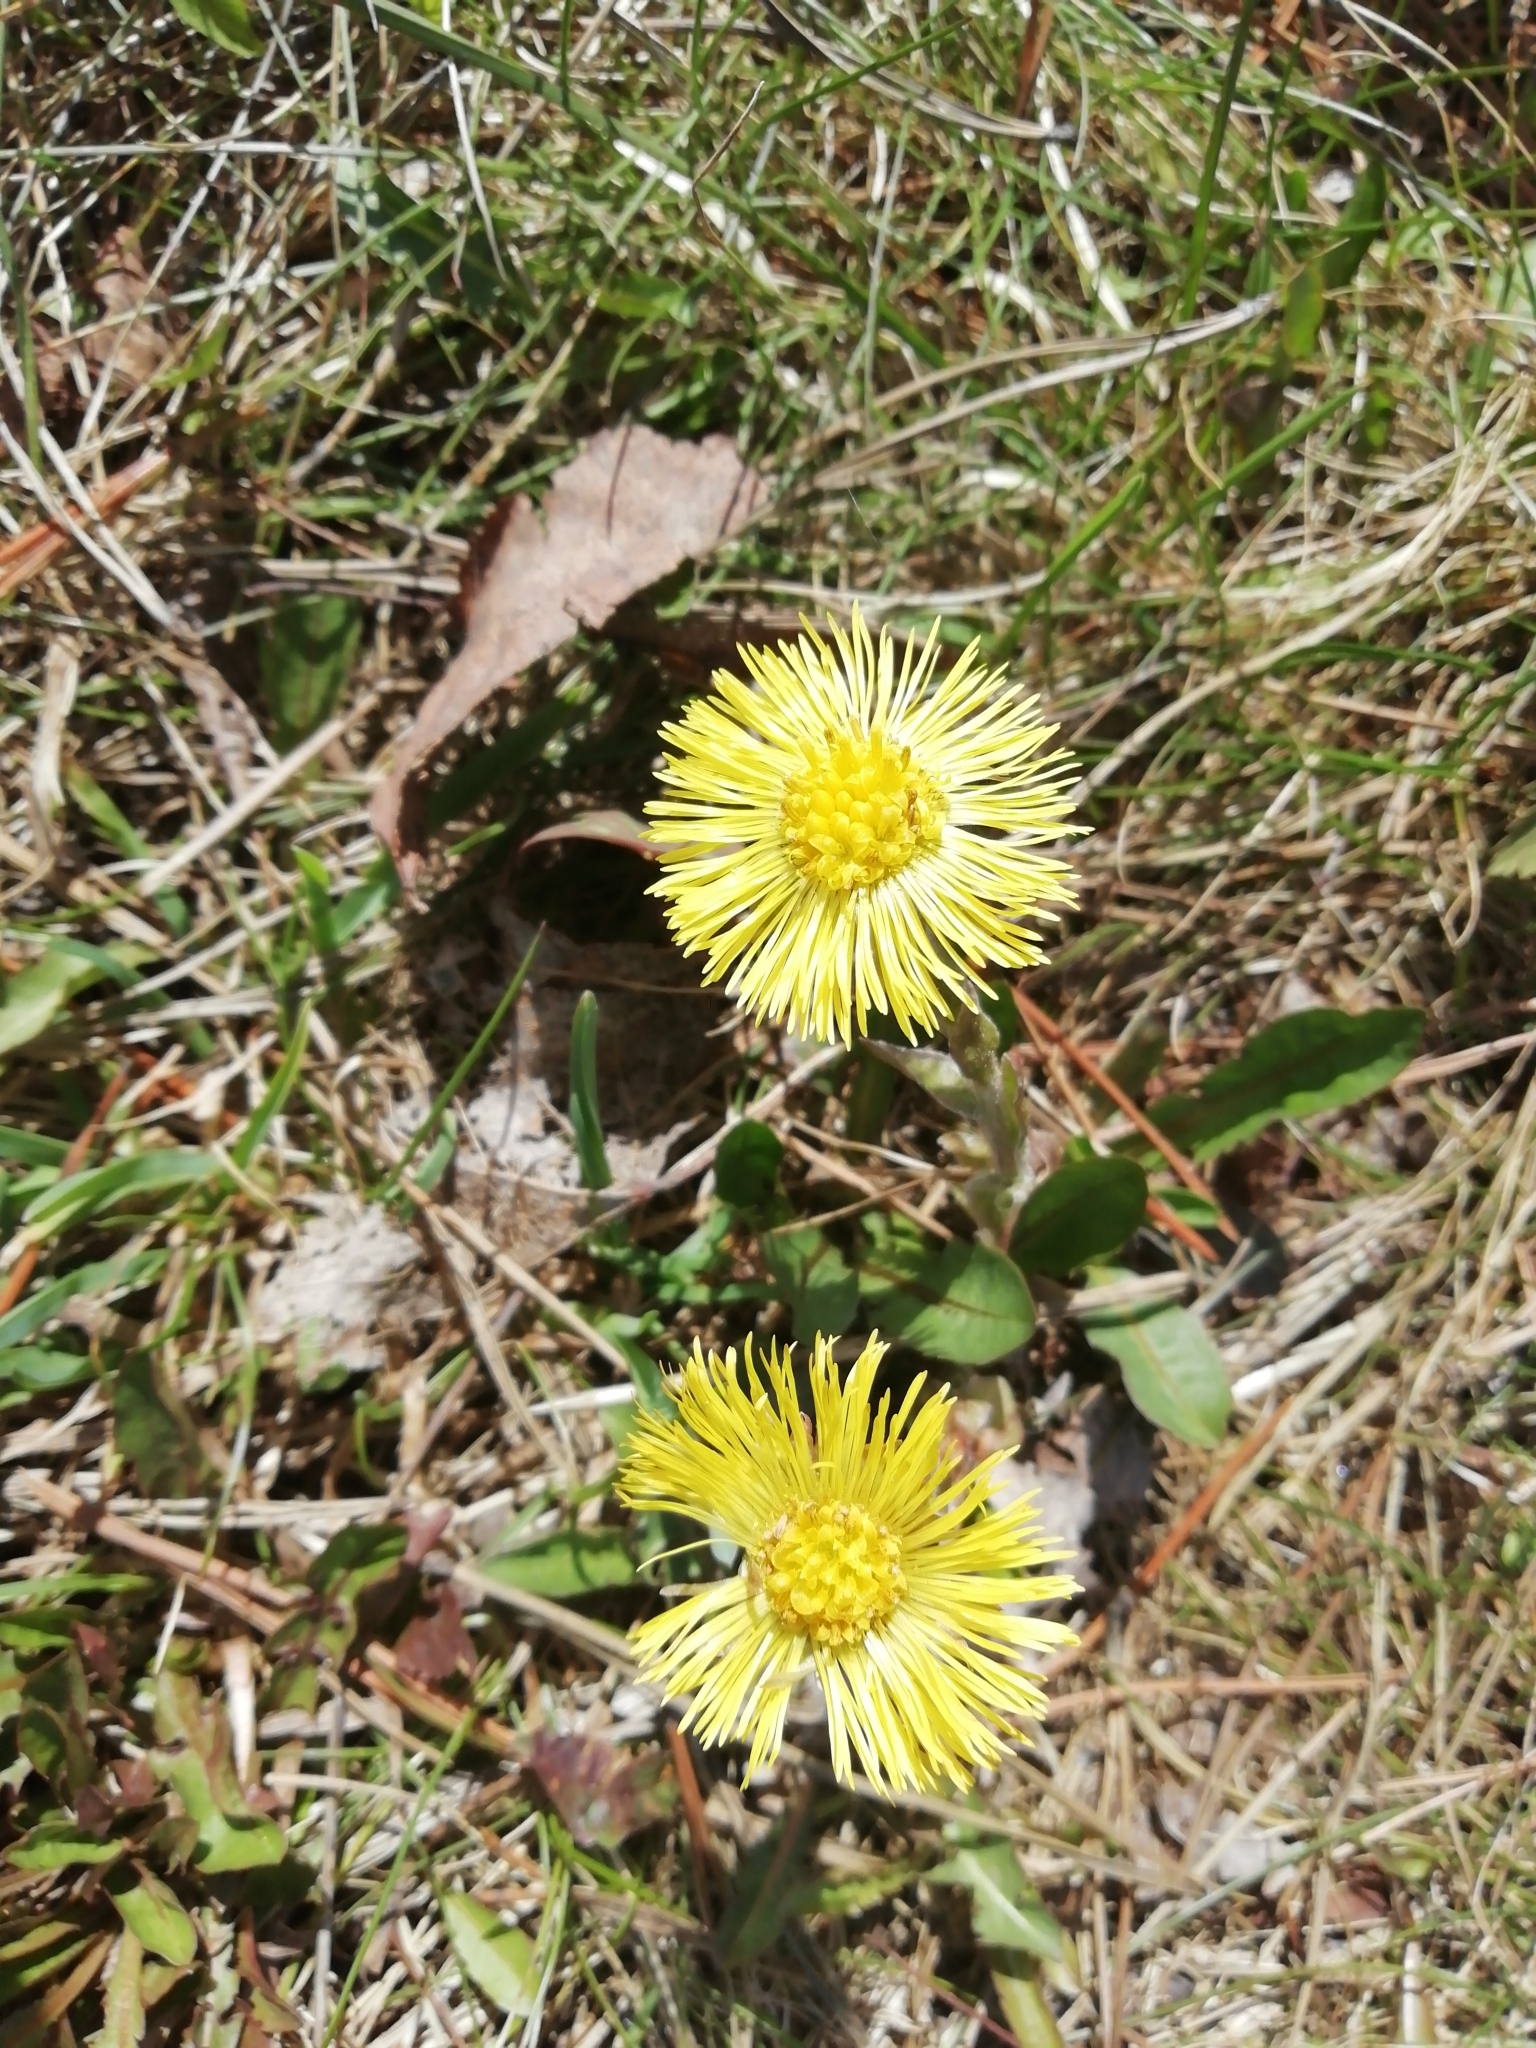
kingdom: Plantae
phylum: Tracheophyta
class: Magnoliopsida
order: Asterales
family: Asteraceae
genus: Tussilago
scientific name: Tussilago farfara
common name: Coltsfoot
